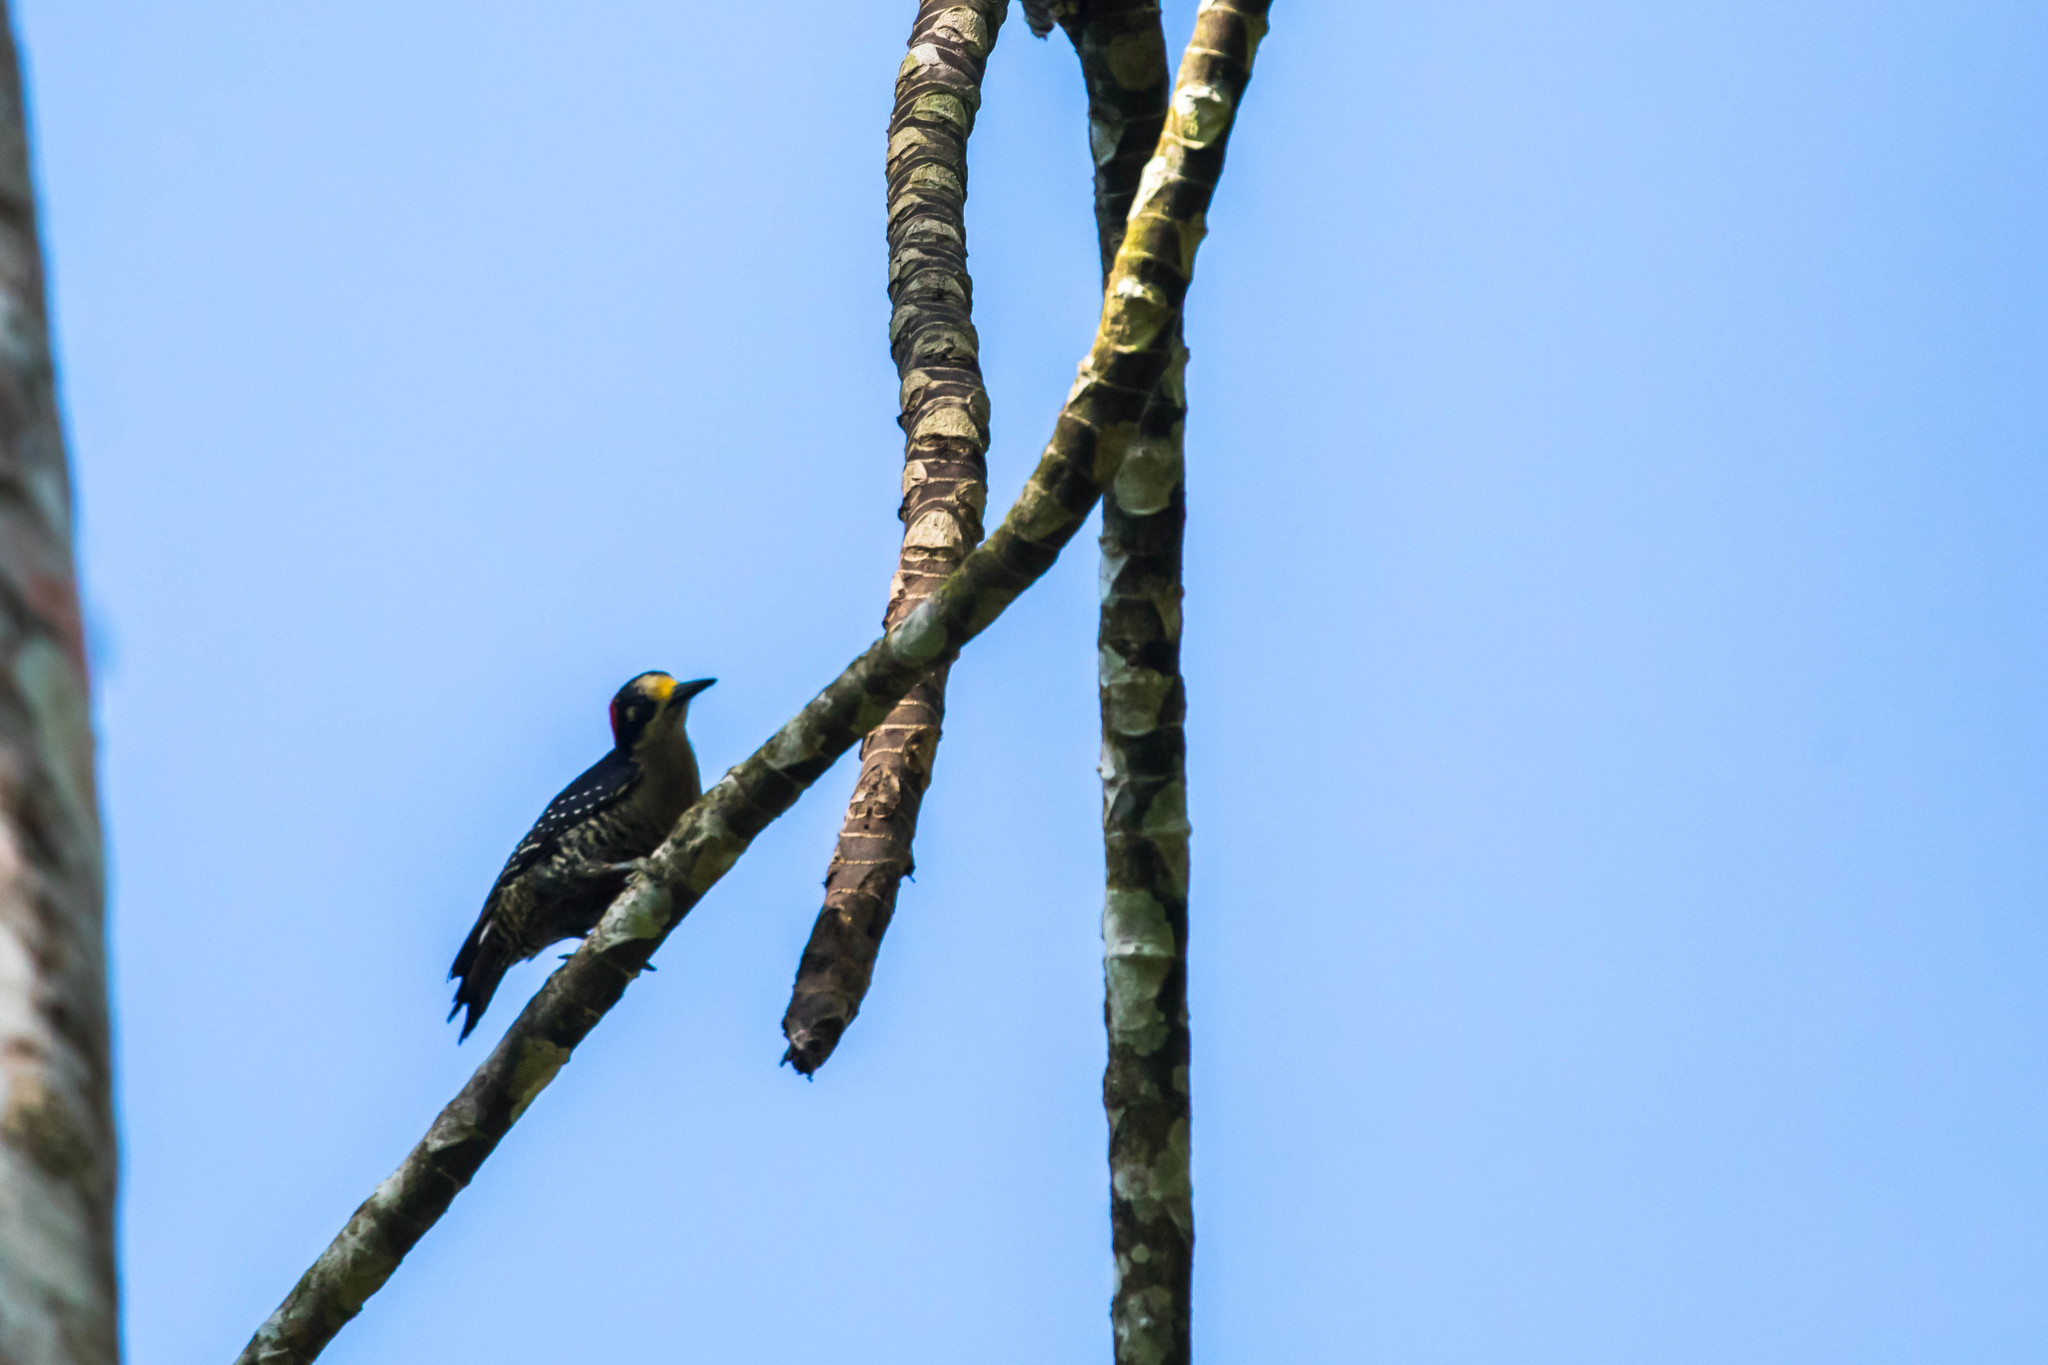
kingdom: Animalia
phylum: Chordata
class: Aves
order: Piciformes
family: Picidae
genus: Melanerpes
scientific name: Melanerpes pucherani
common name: Black-cheeked woodpecker
